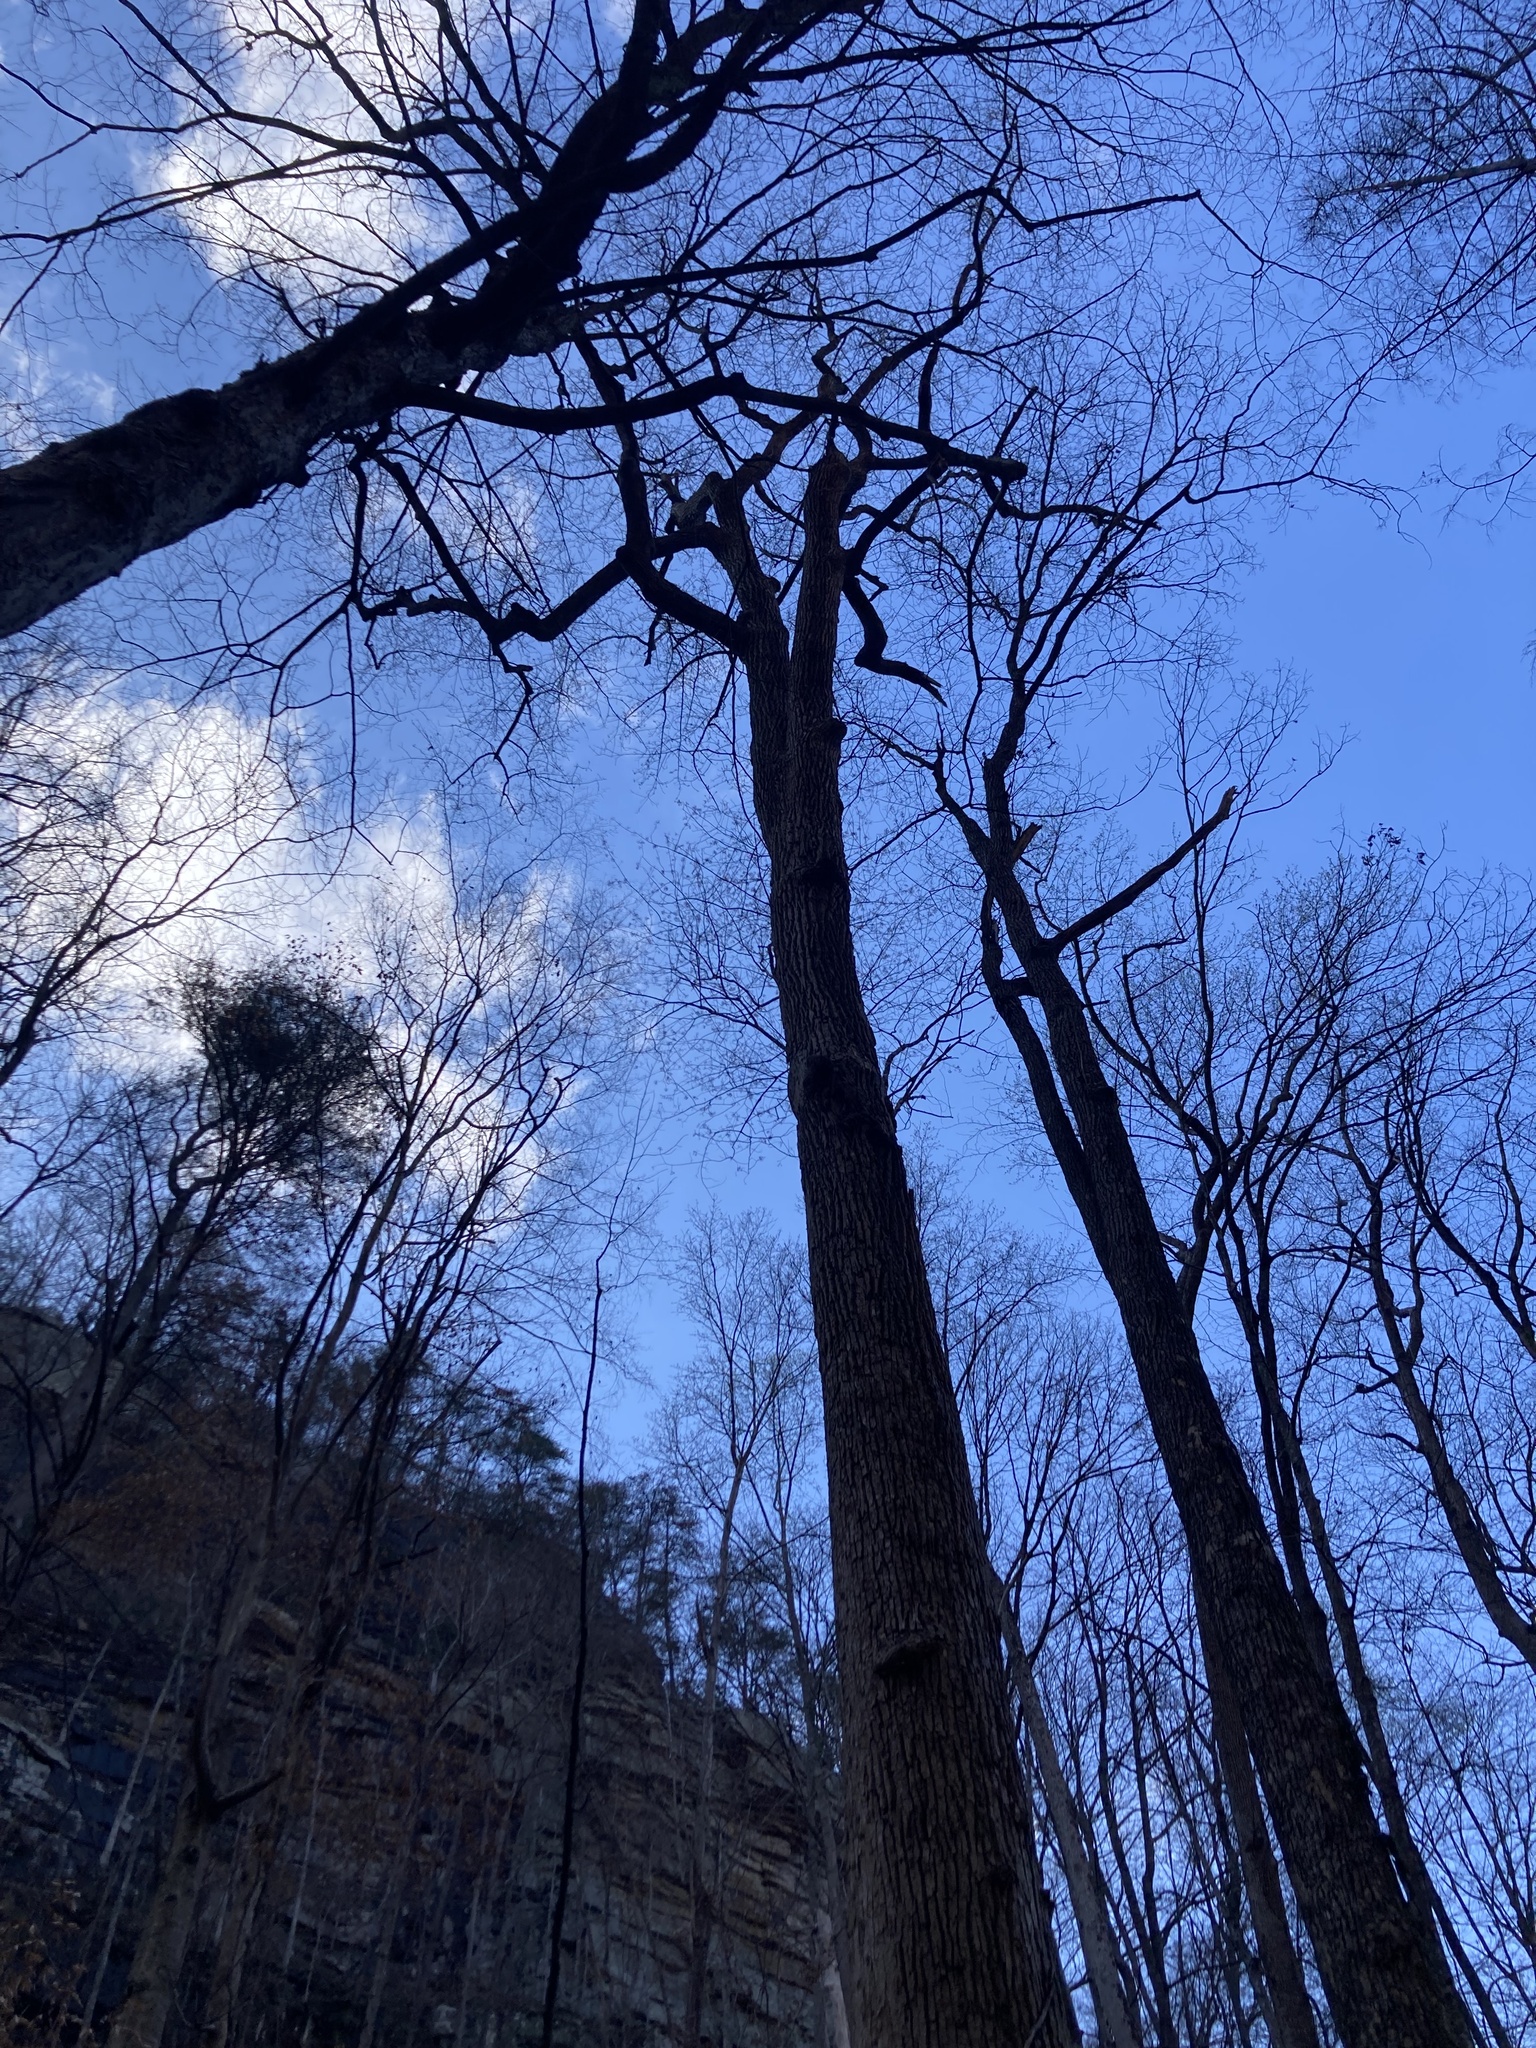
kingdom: Plantae
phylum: Tracheophyta
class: Magnoliopsida
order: Magnoliales
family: Magnoliaceae
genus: Liriodendron
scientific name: Liriodendron tulipifera
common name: Tulip tree
